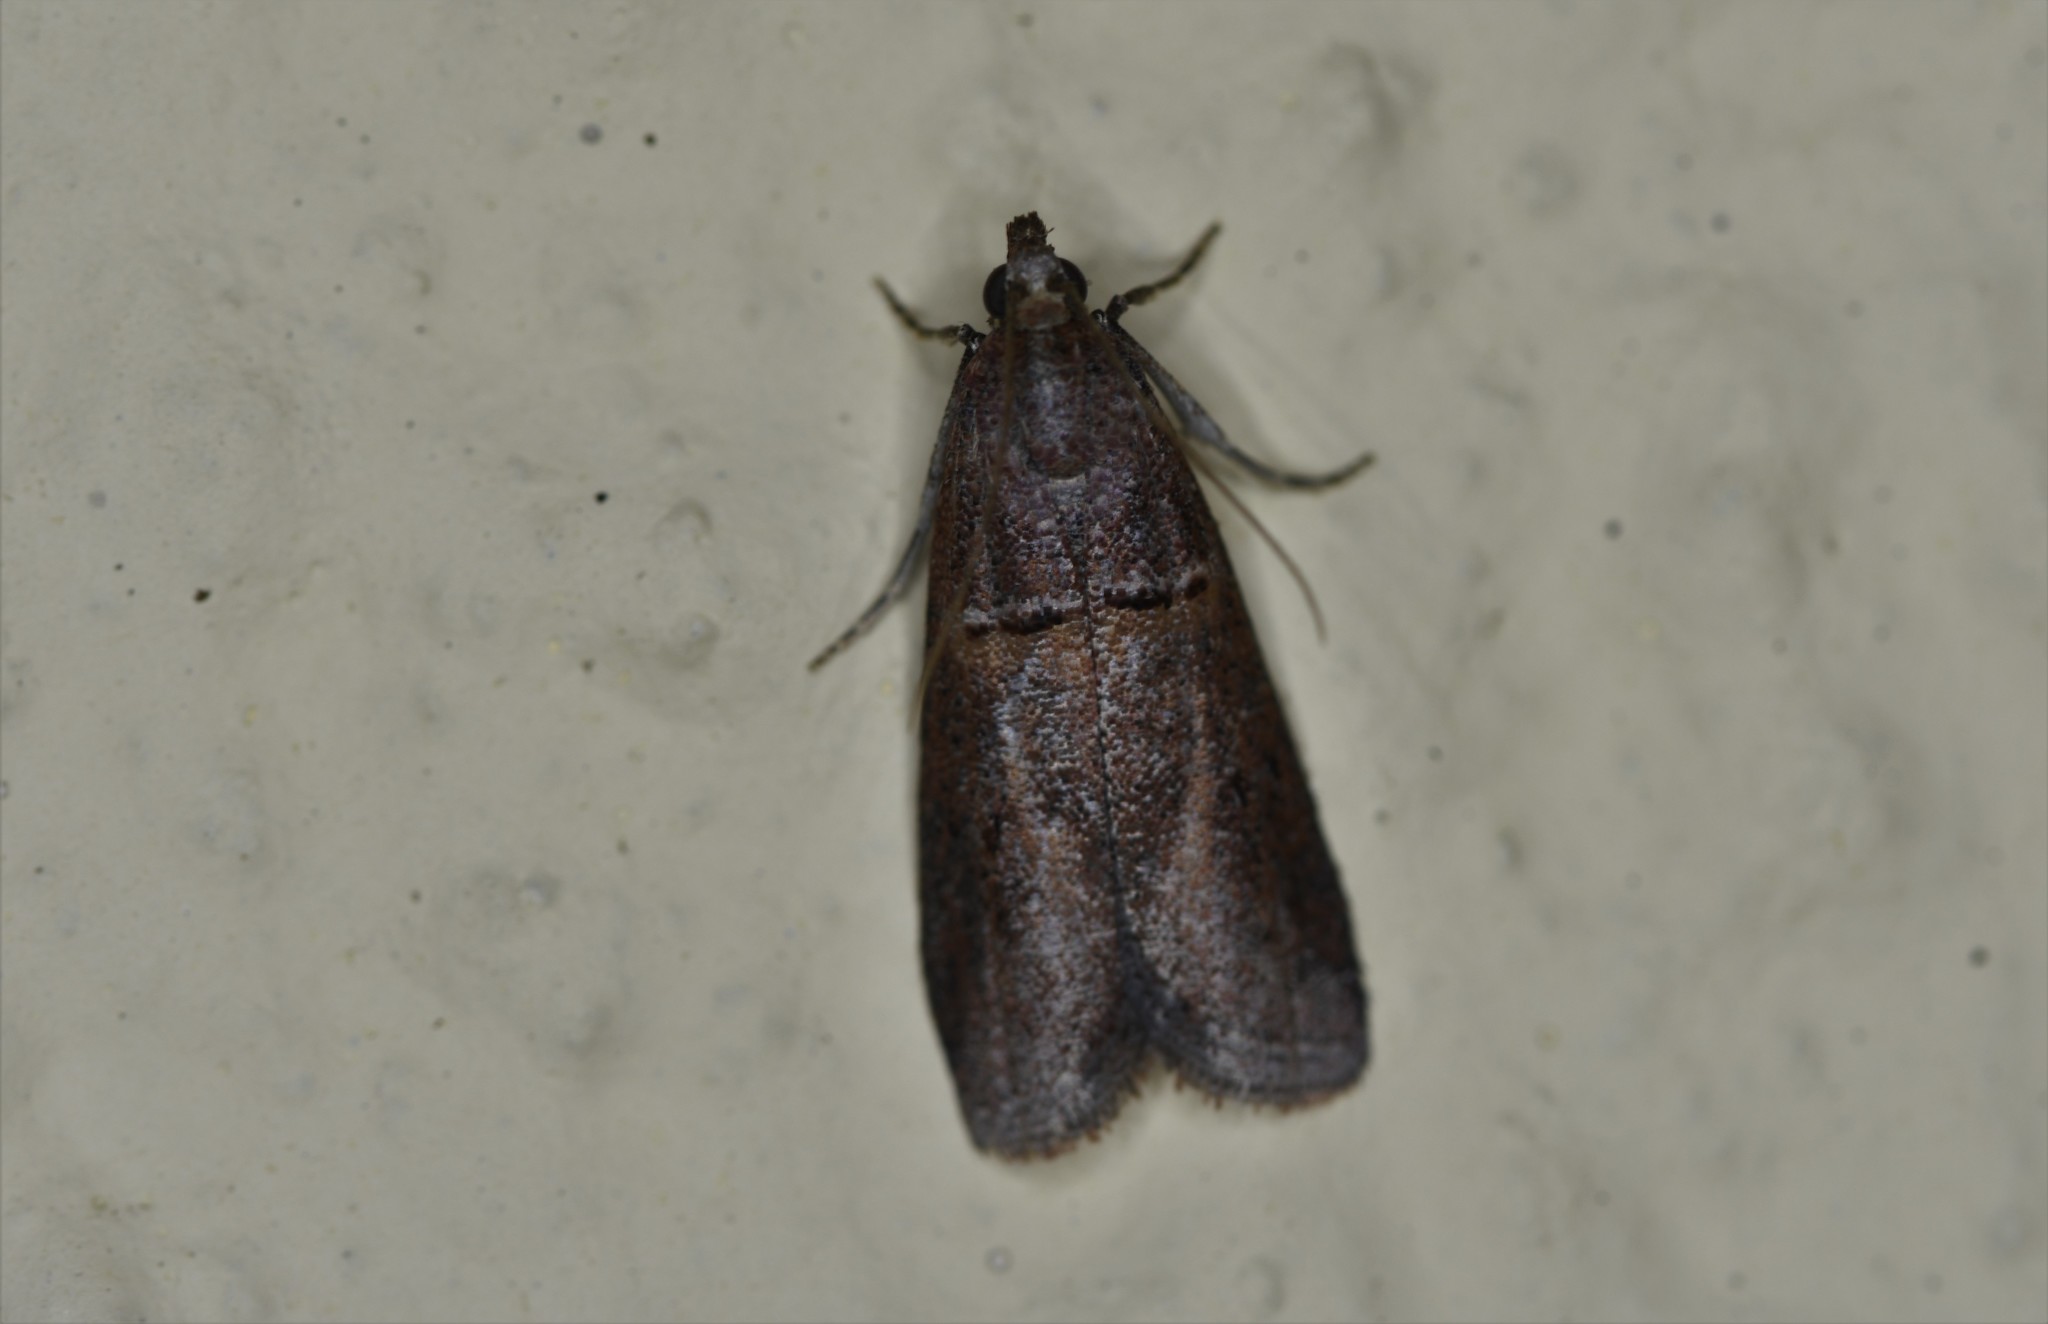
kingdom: Animalia
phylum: Arthropoda
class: Insecta
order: Lepidoptera
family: Pyralidae
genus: Acrobasis
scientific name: Acrobasis bithynella
